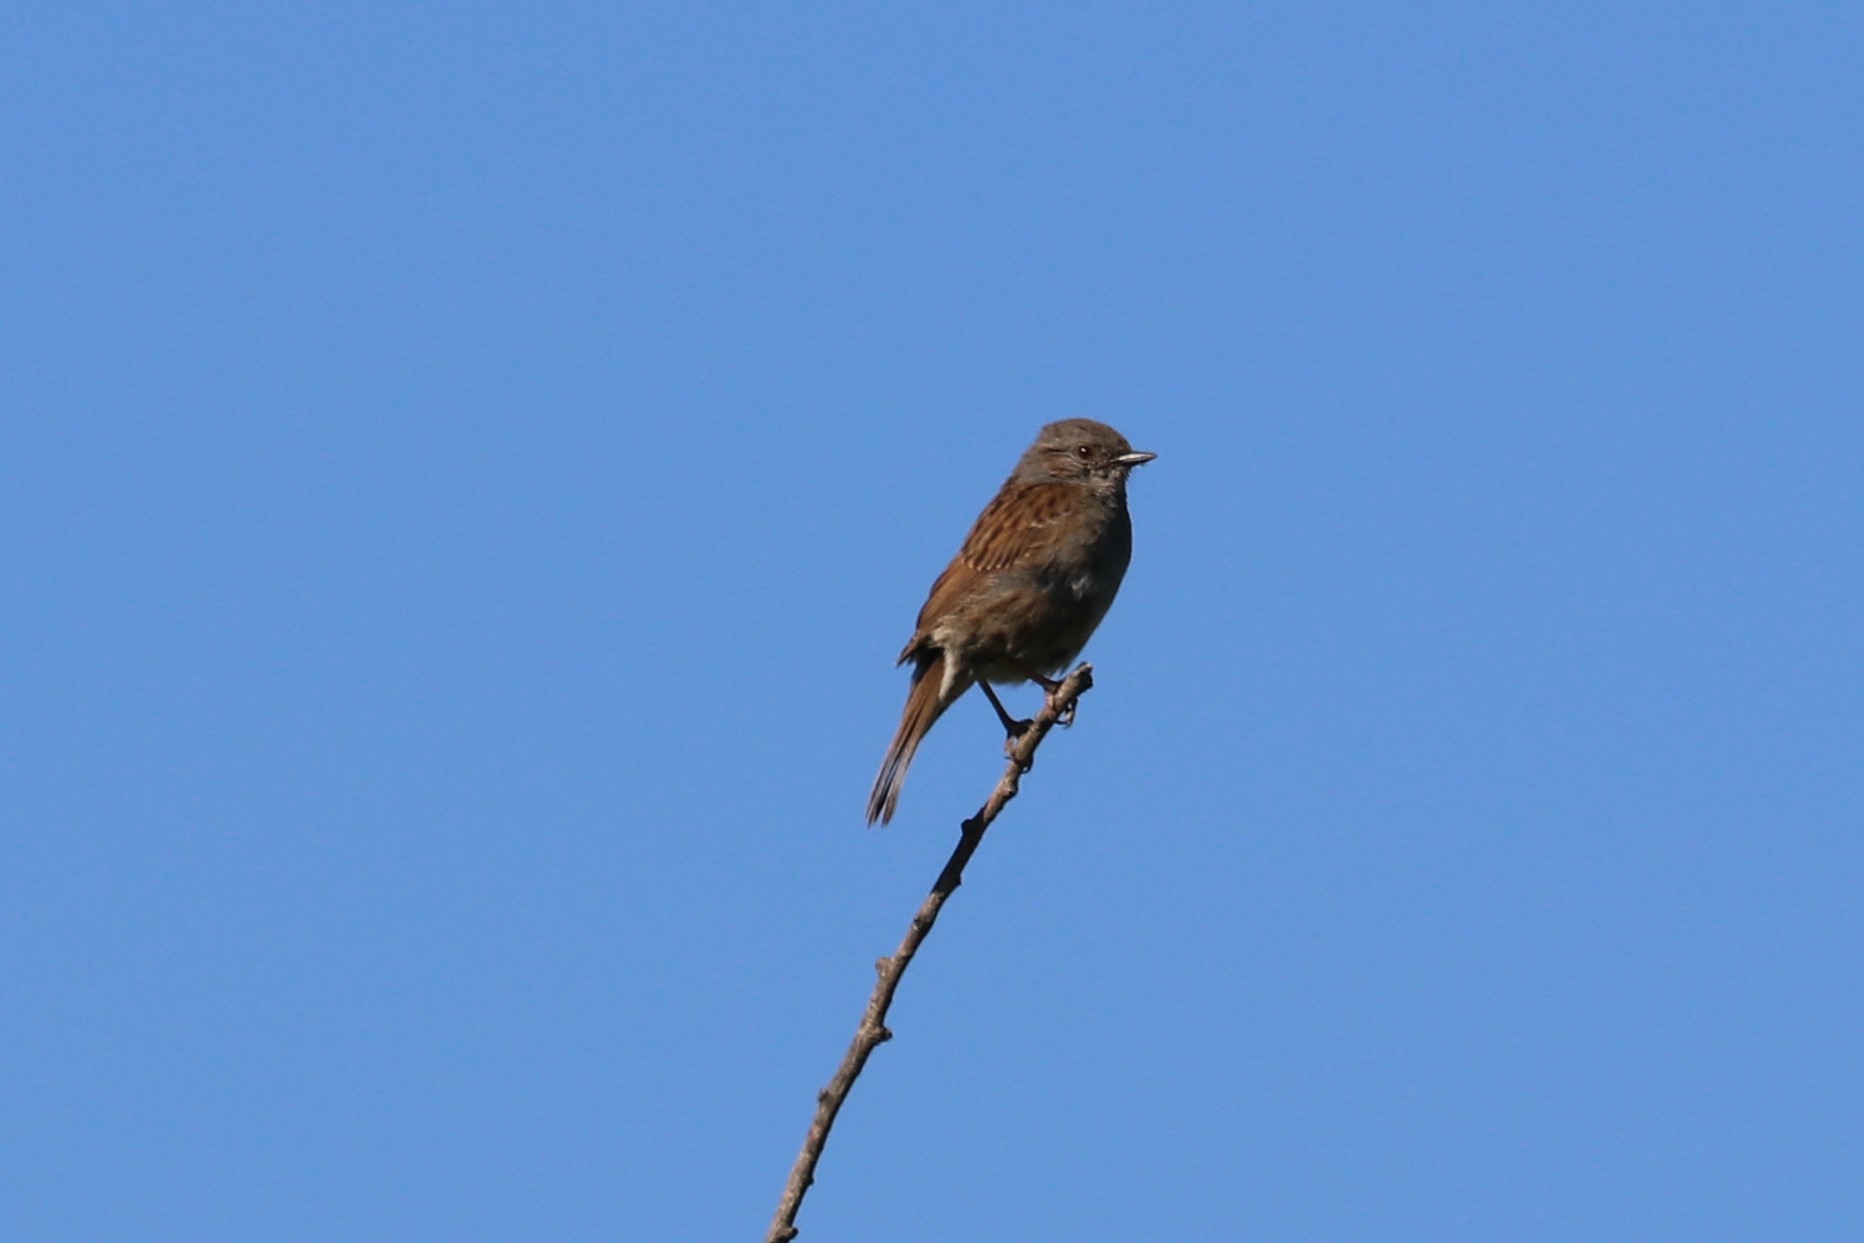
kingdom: Animalia
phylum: Chordata
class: Aves
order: Passeriformes
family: Prunellidae
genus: Prunella
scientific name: Prunella modularis
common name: Dunnock
